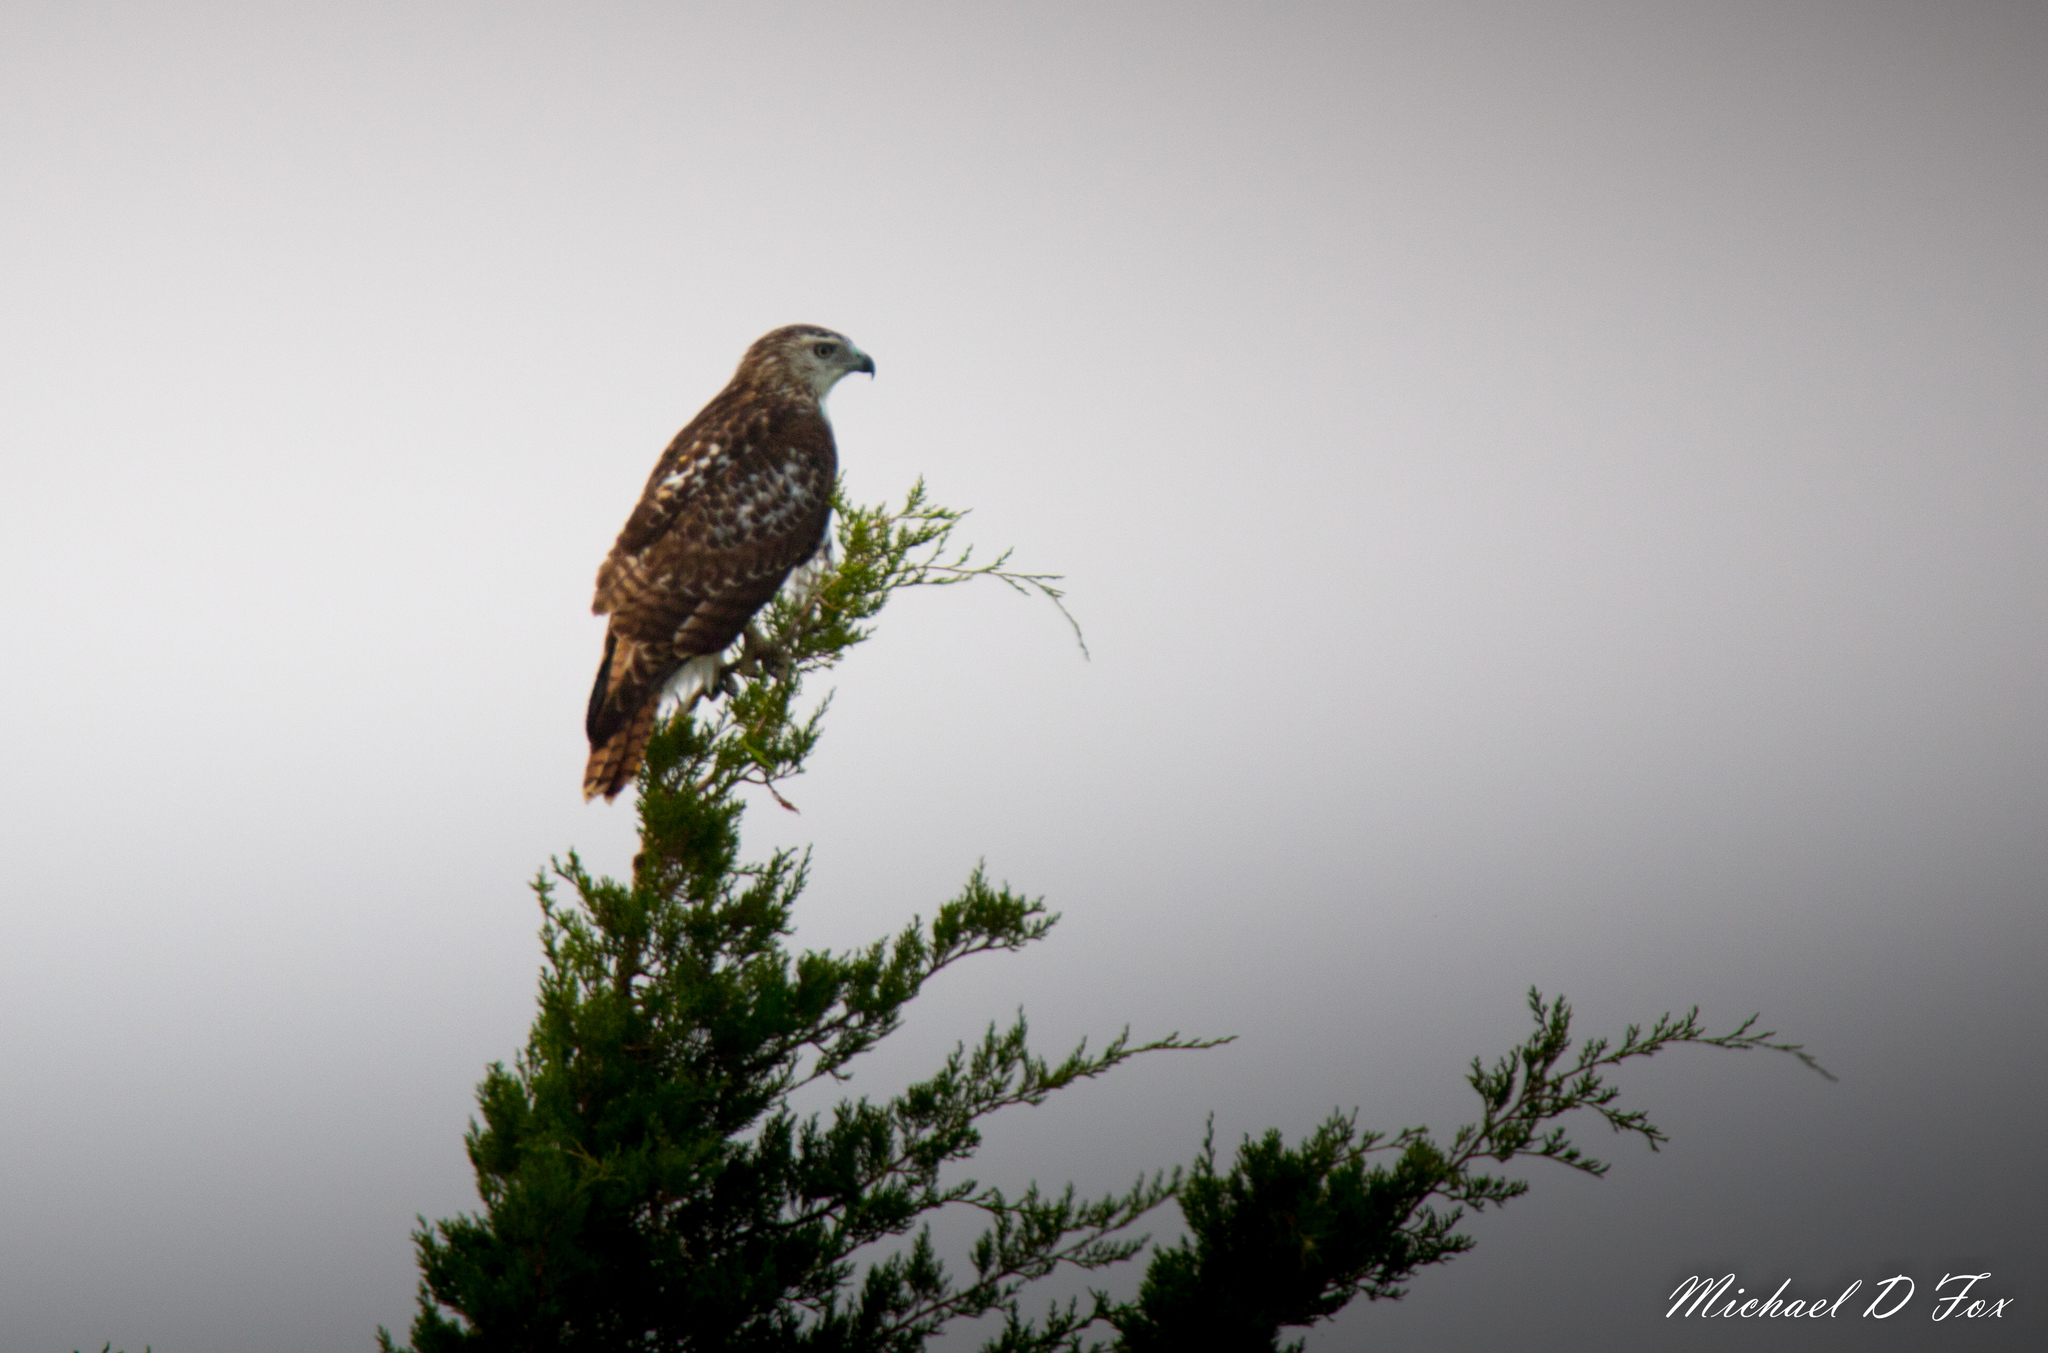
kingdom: Animalia
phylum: Chordata
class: Aves
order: Accipitriformes
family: Accipitridae
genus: Buteo
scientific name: Buteo jamaicensis
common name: Red-tailed hawk
